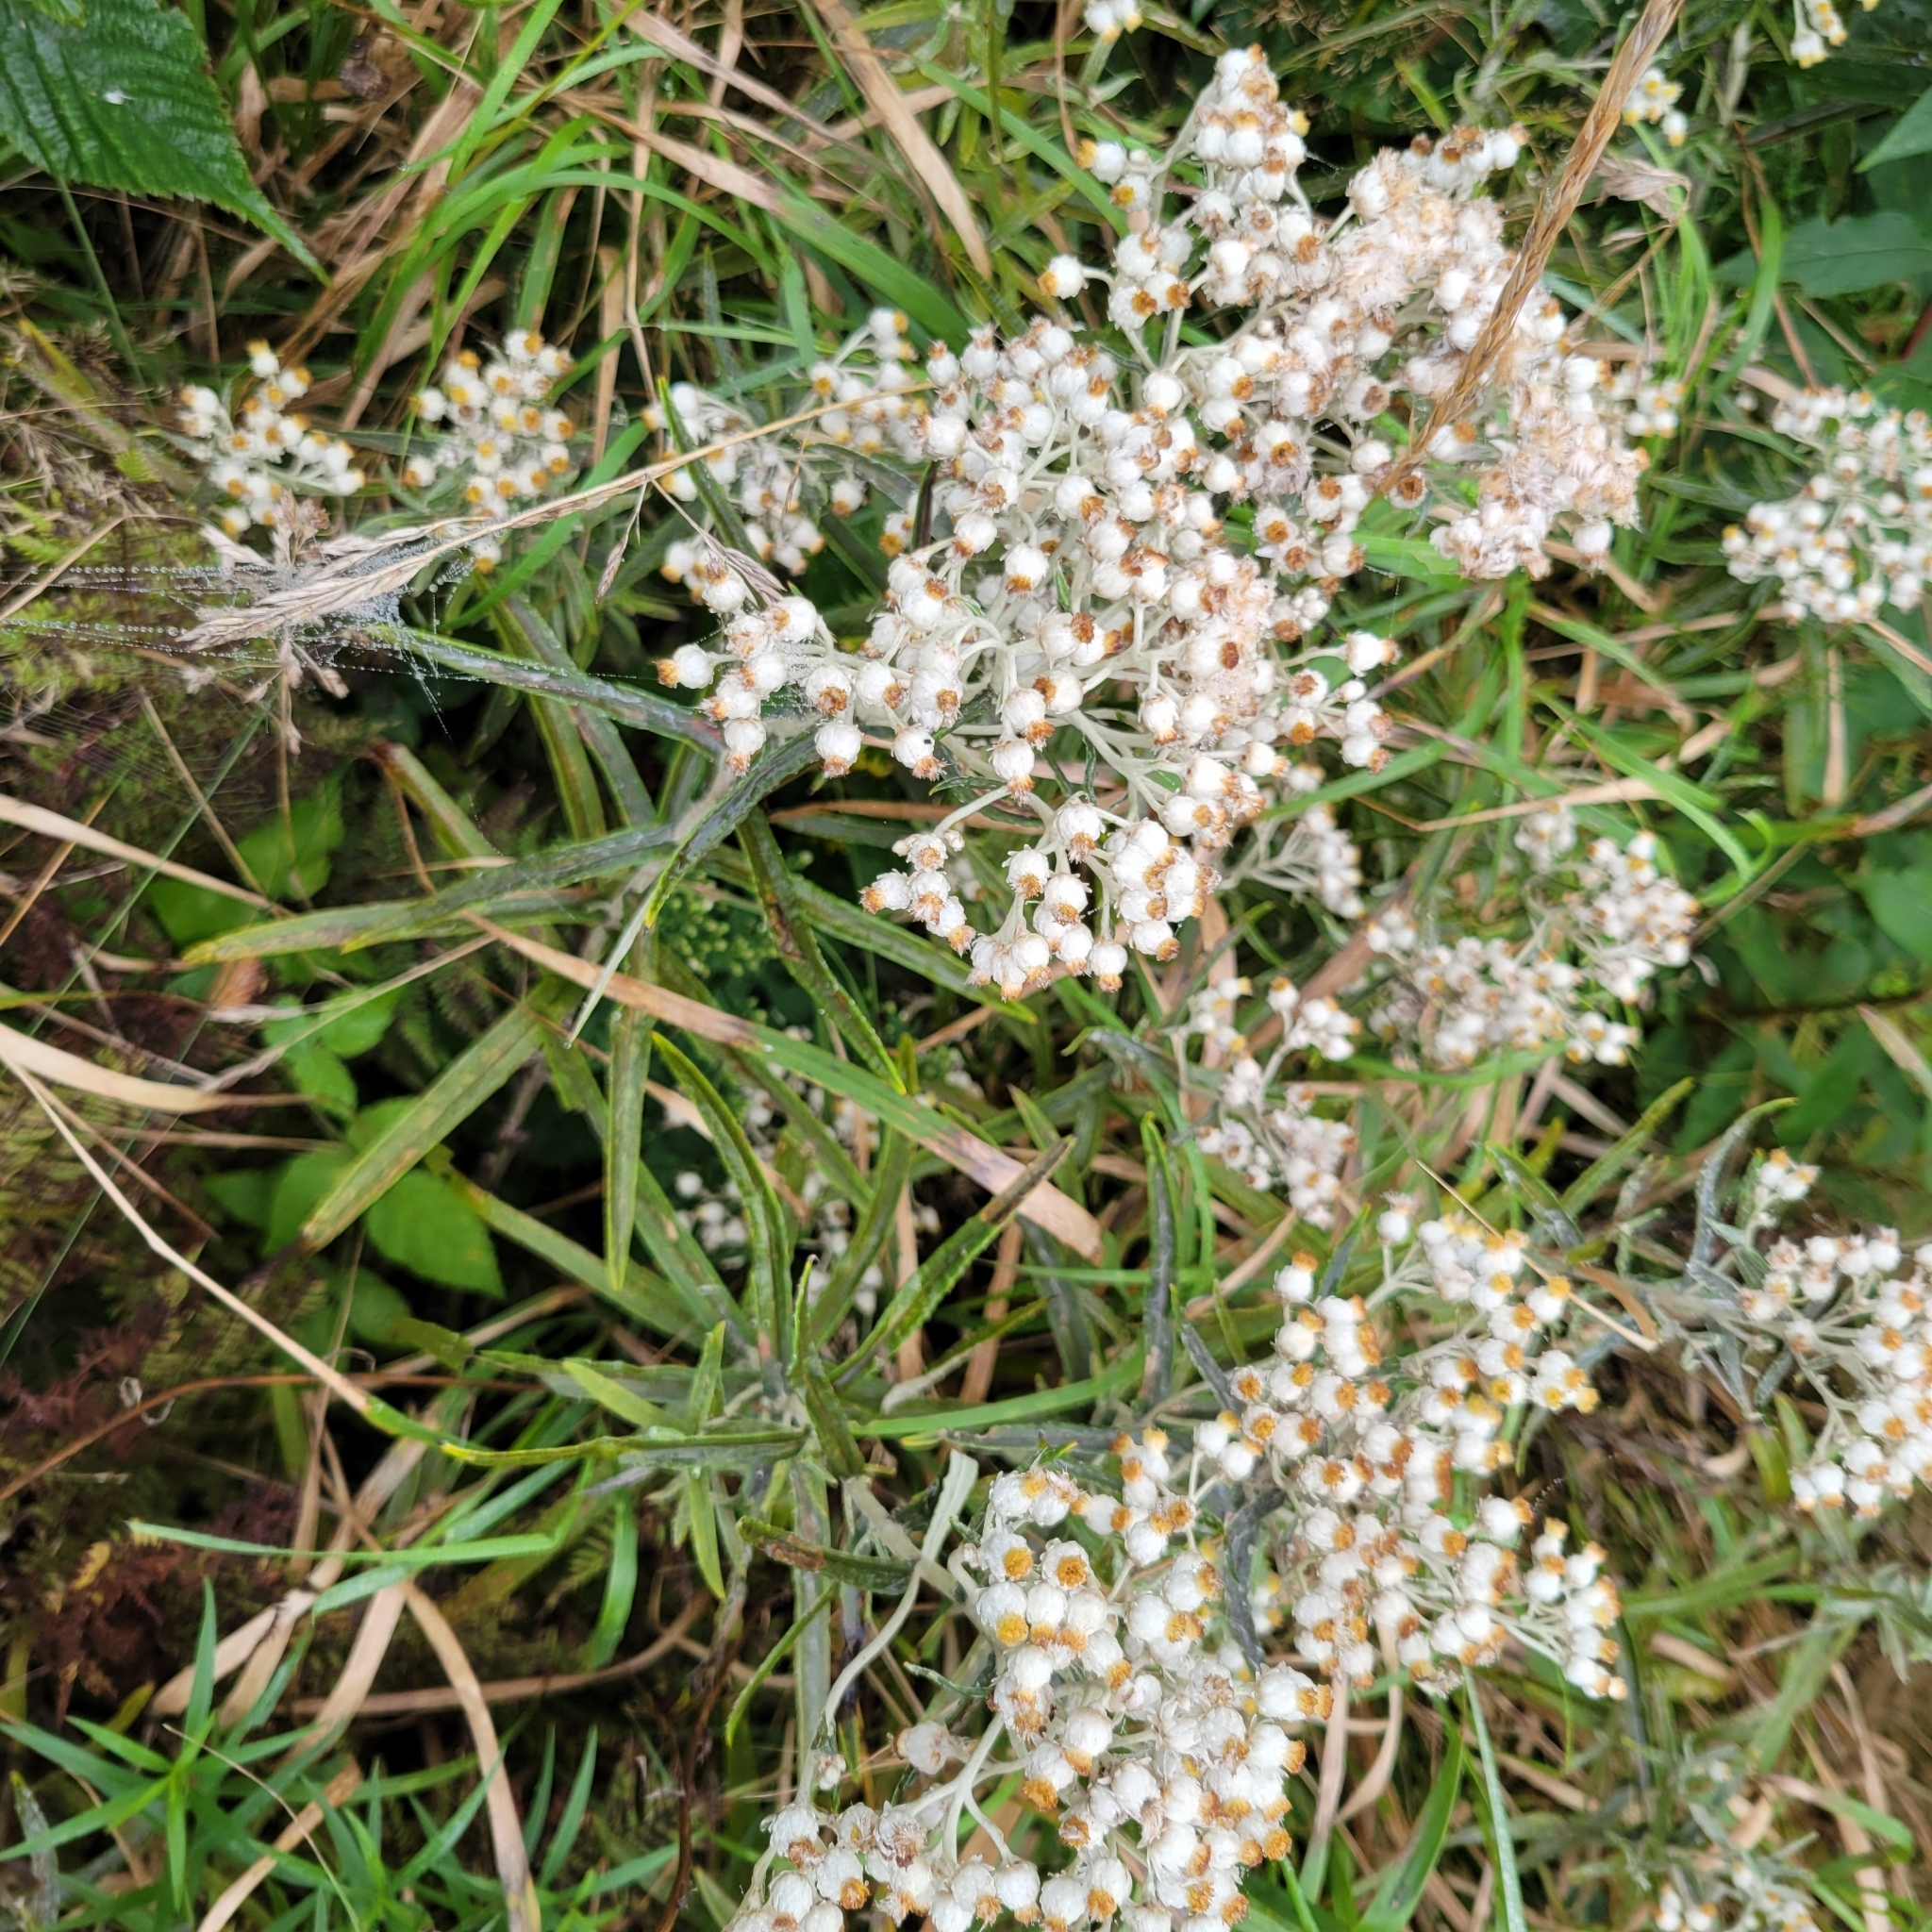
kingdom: Plantae
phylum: Tracheophyta
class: Magnoliopsida
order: Asterales
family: Asteraceae
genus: Anaphalis
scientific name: Anaphalis margaritacea
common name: Pearly everlasting
